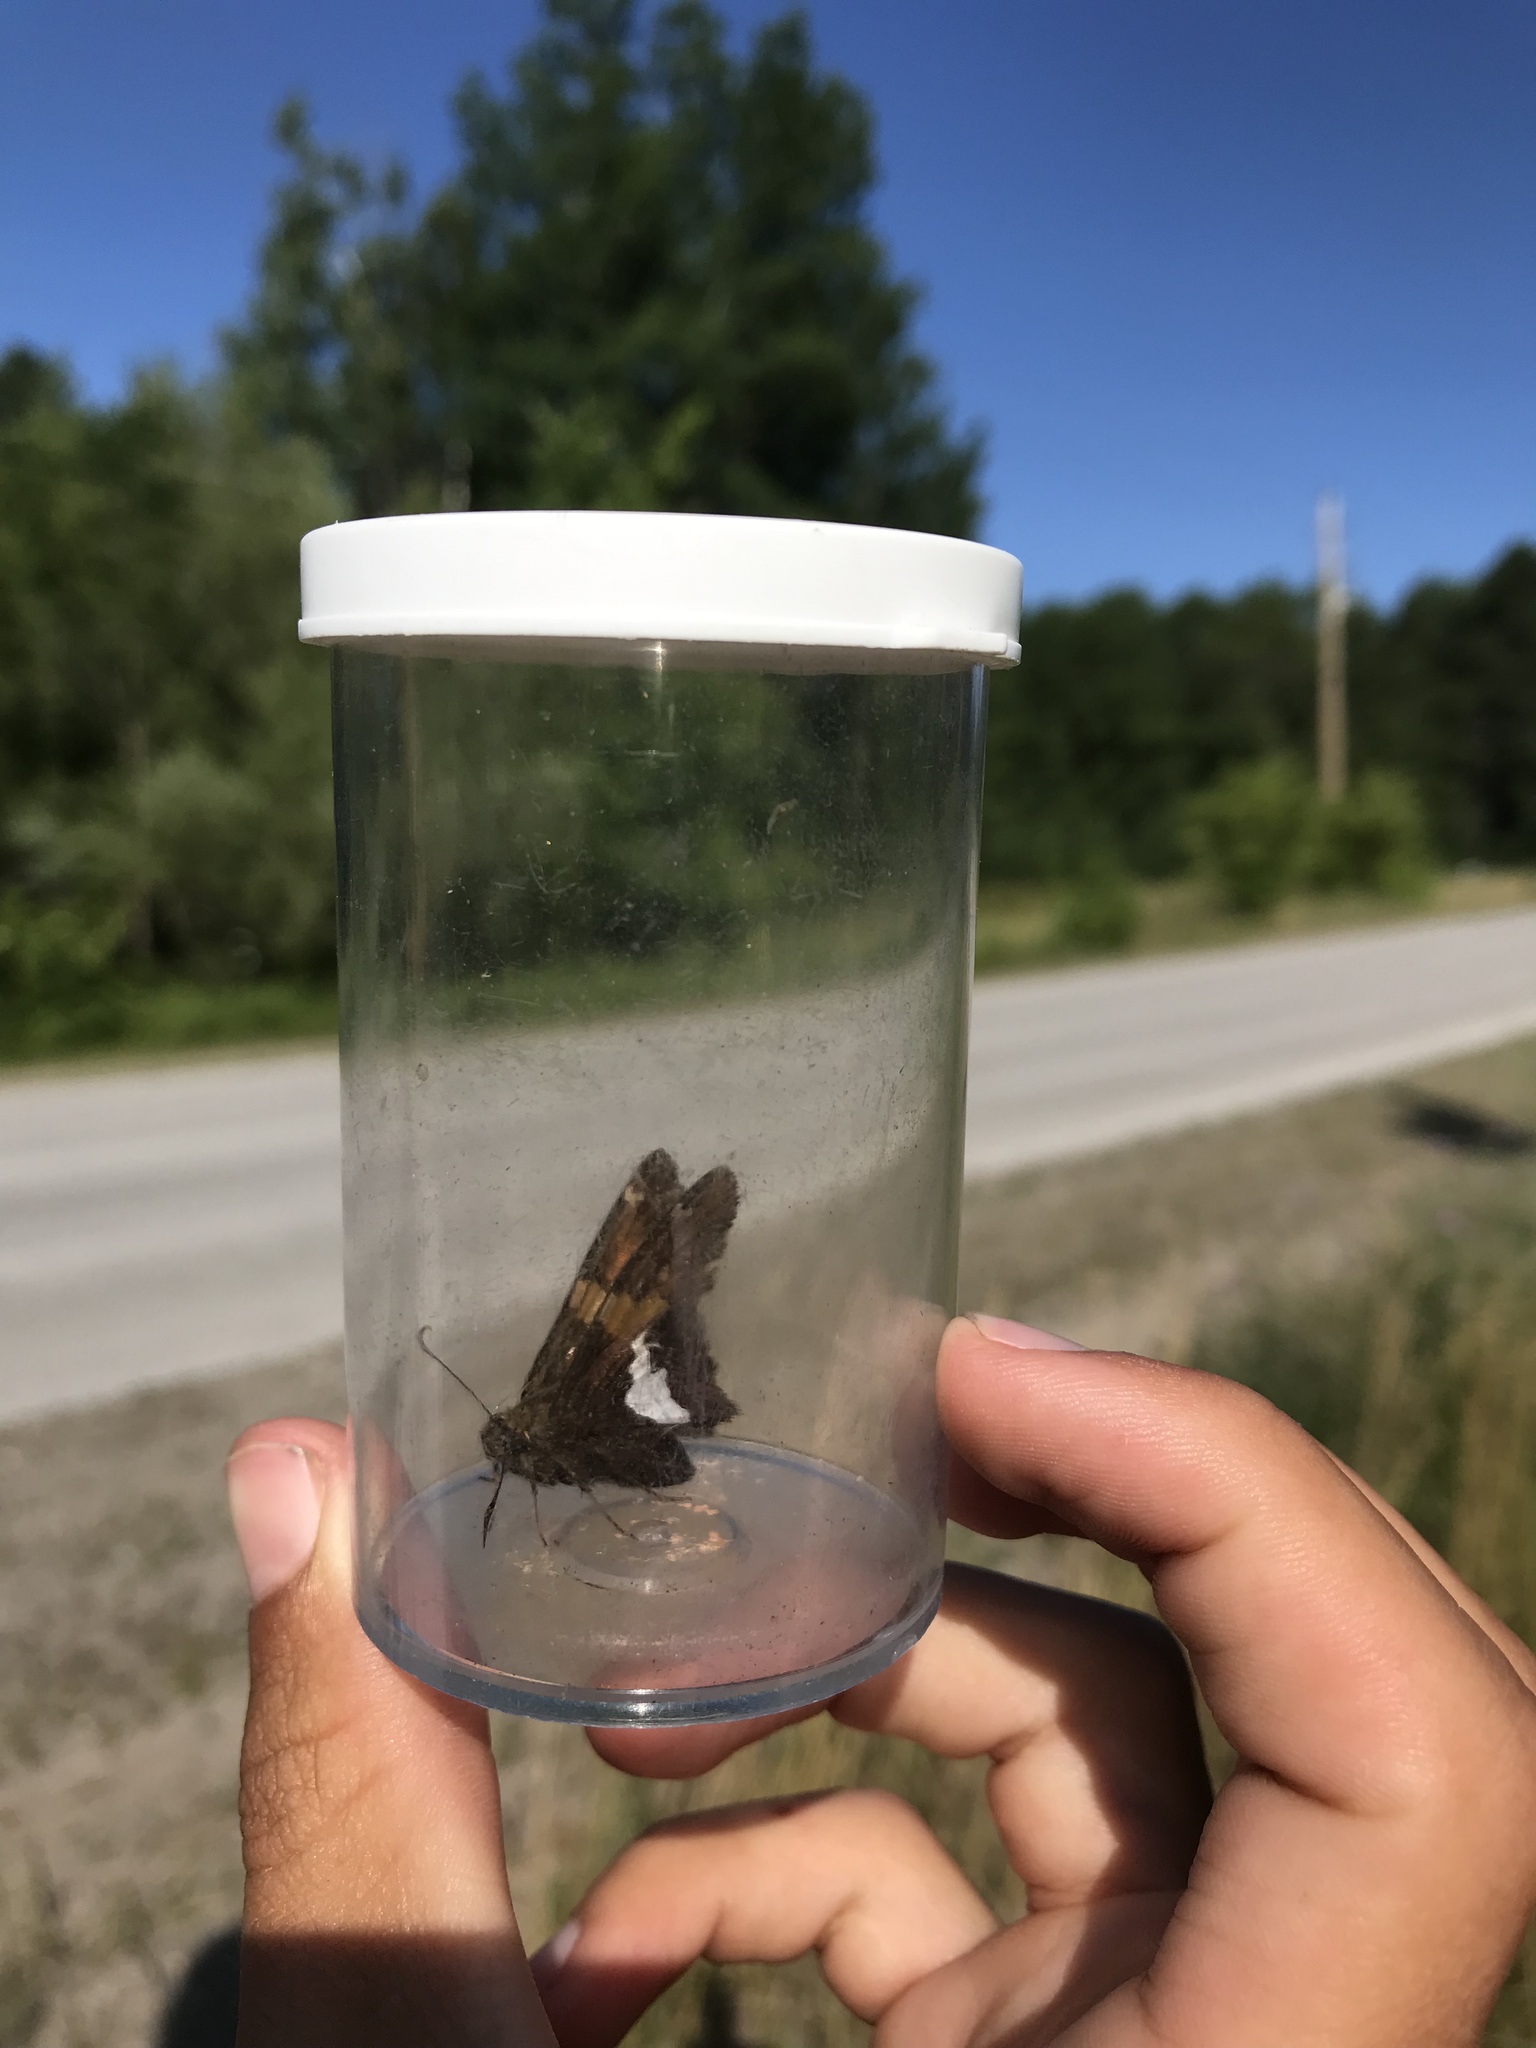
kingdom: Animalia
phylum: Arthropoda
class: Insecta
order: Lepidoptera
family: Hesperiidae
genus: Epargyreus
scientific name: Epargyreus clarus
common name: Silver-spotted skipper
